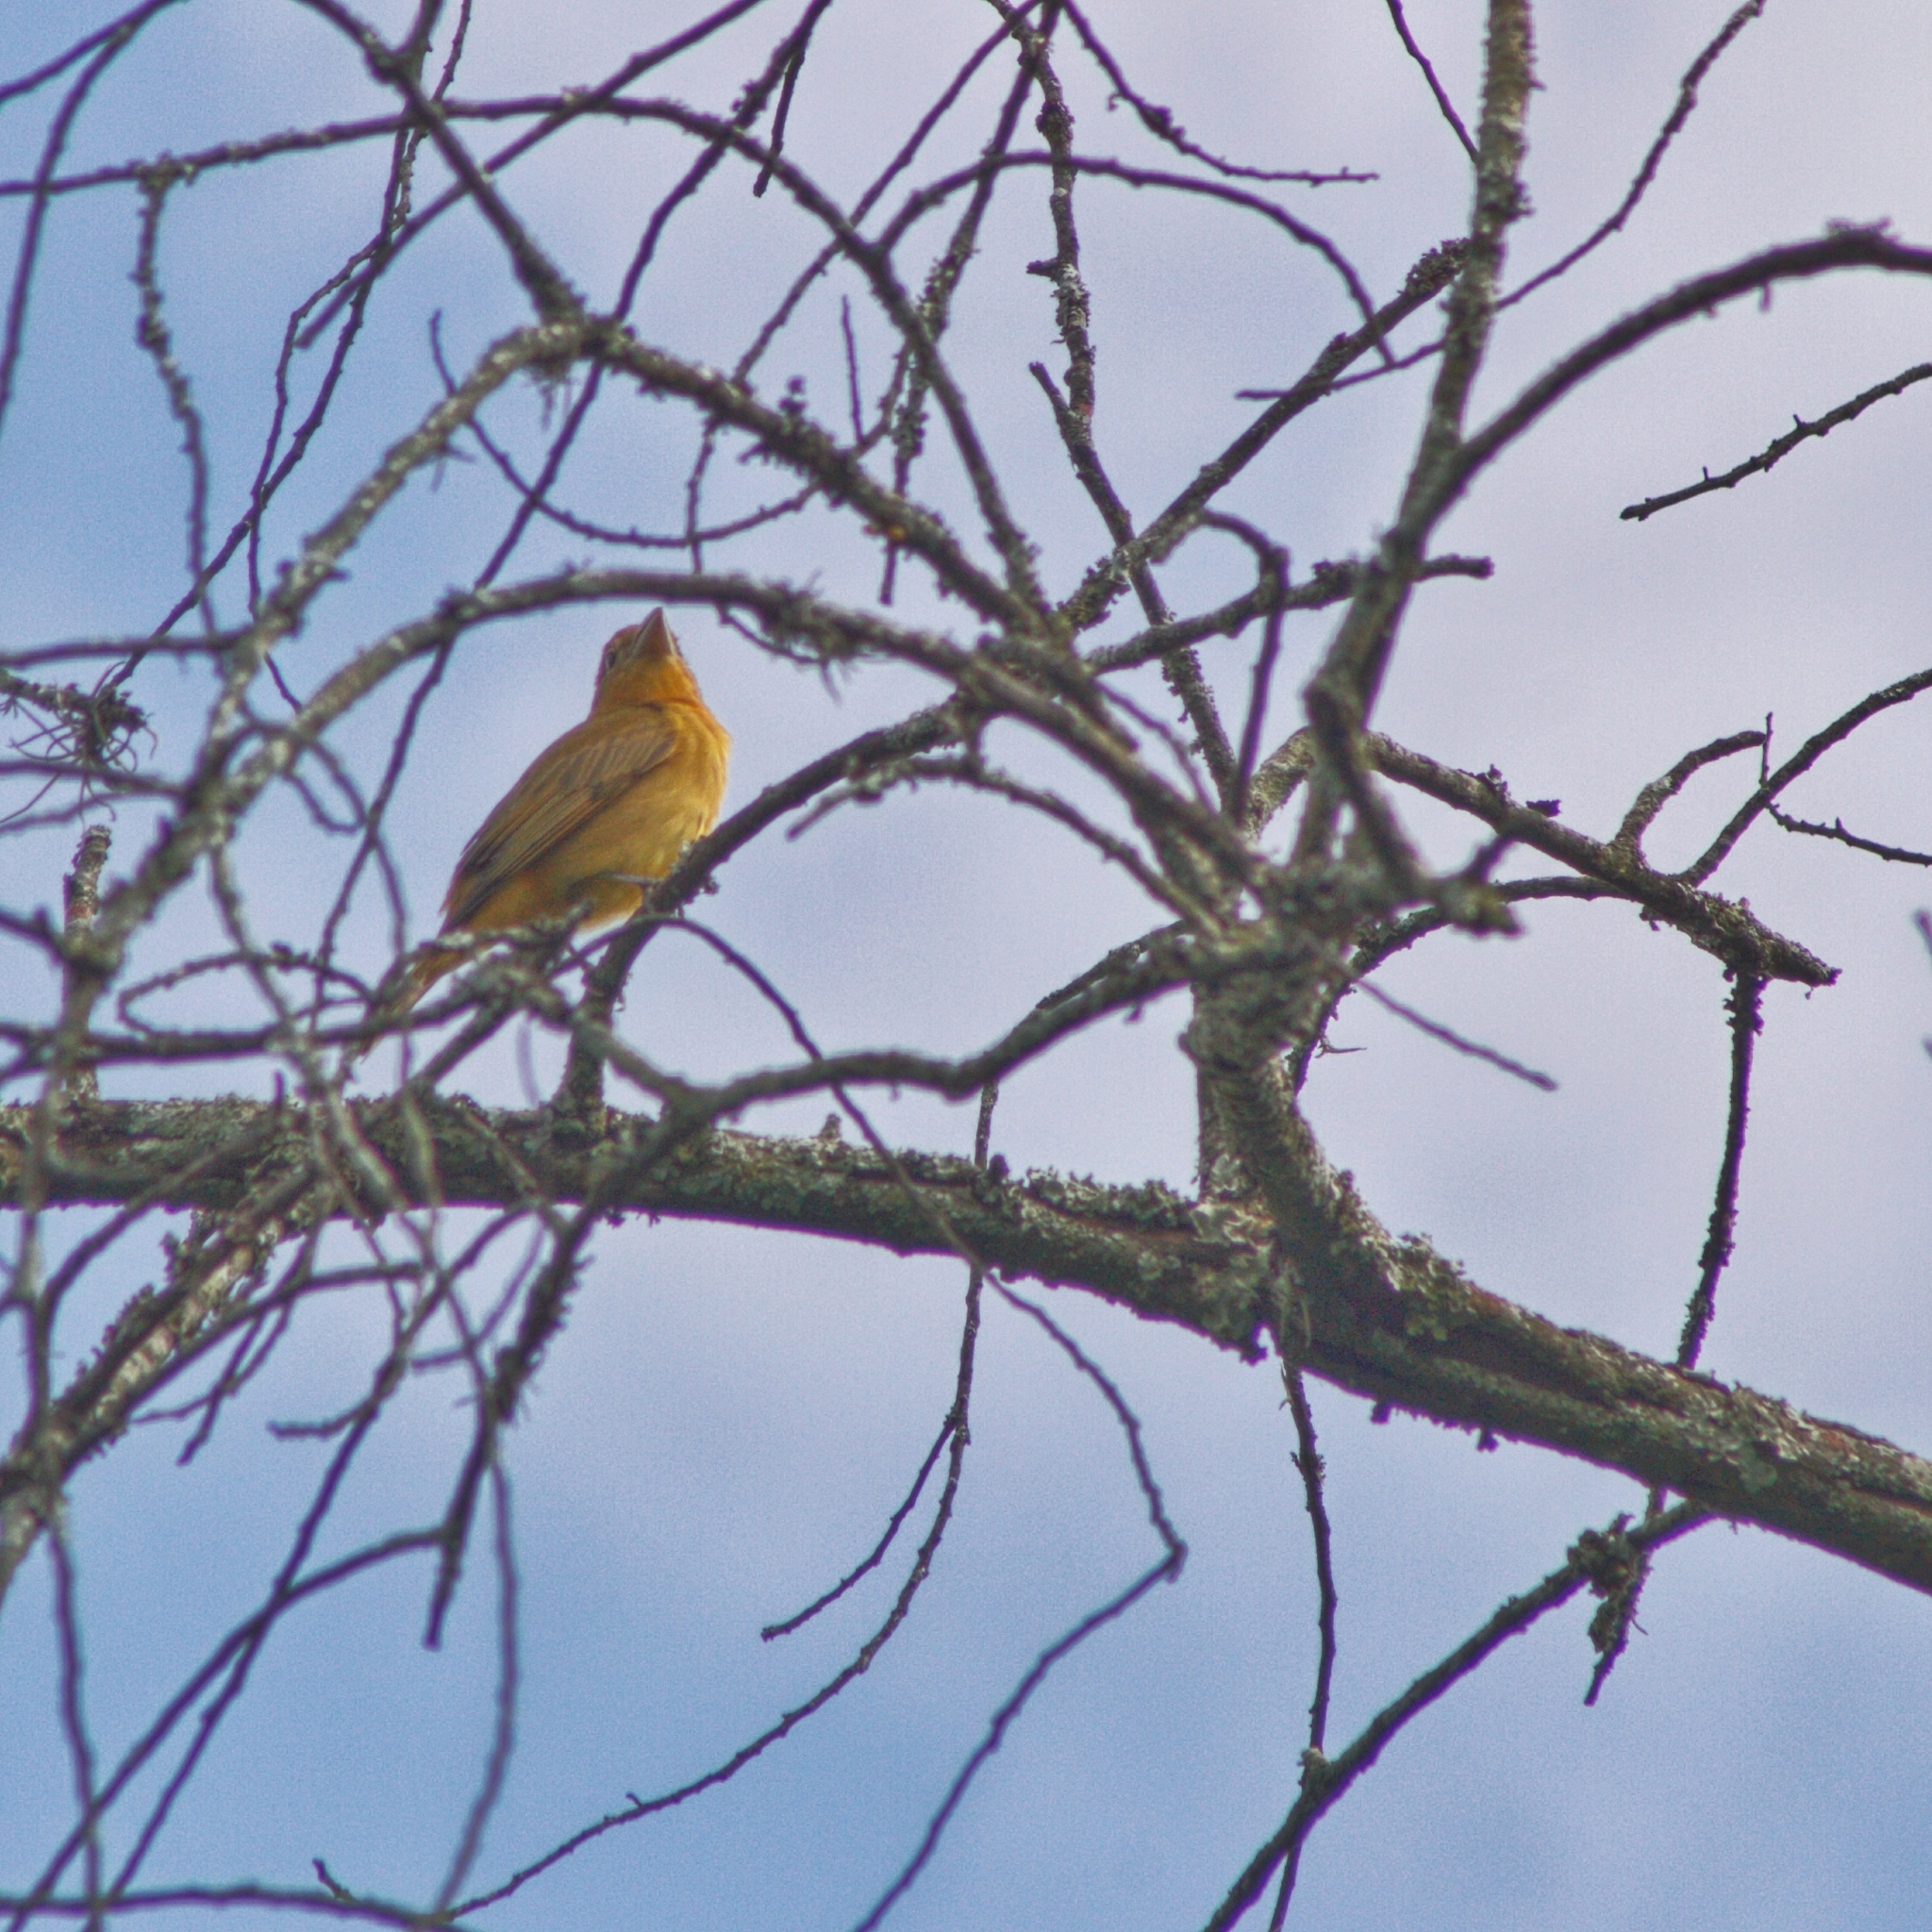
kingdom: Animalia
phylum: Chordata
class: Aves
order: Passeriformes
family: Cardinalidae
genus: Piranga
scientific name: Piranga rubra
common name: Summer tanager
